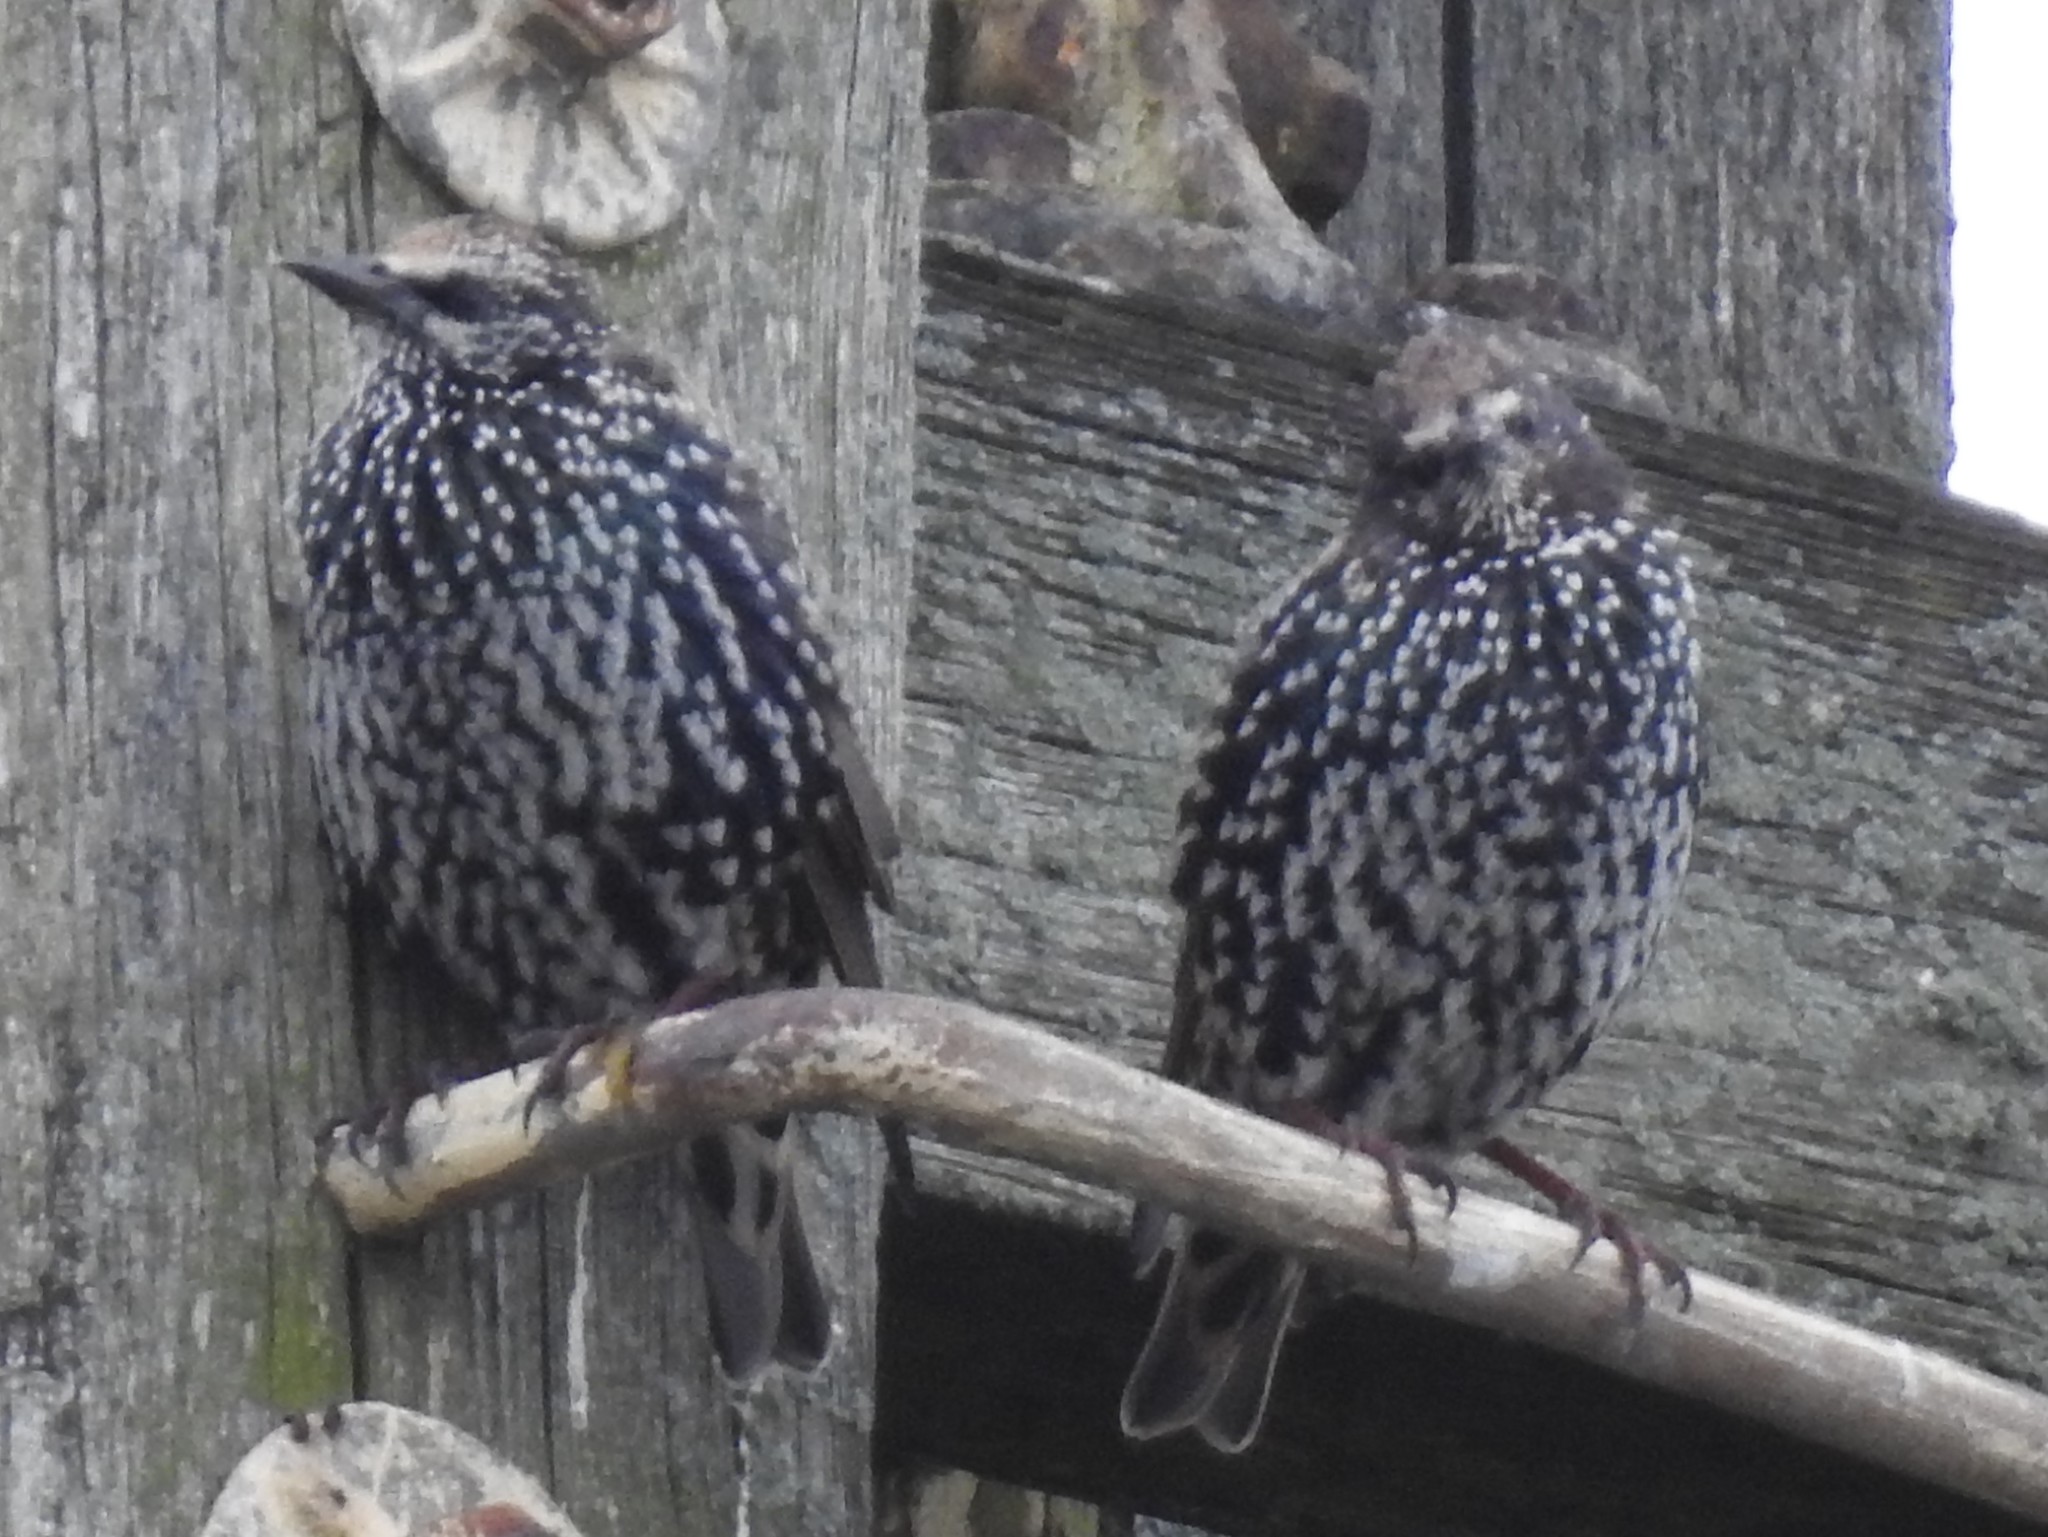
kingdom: Animalia
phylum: Chordata
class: Aves
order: Passeriformes
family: Sturnidae
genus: Sturnus
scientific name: Sturnus vulgaris
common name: Common starling
